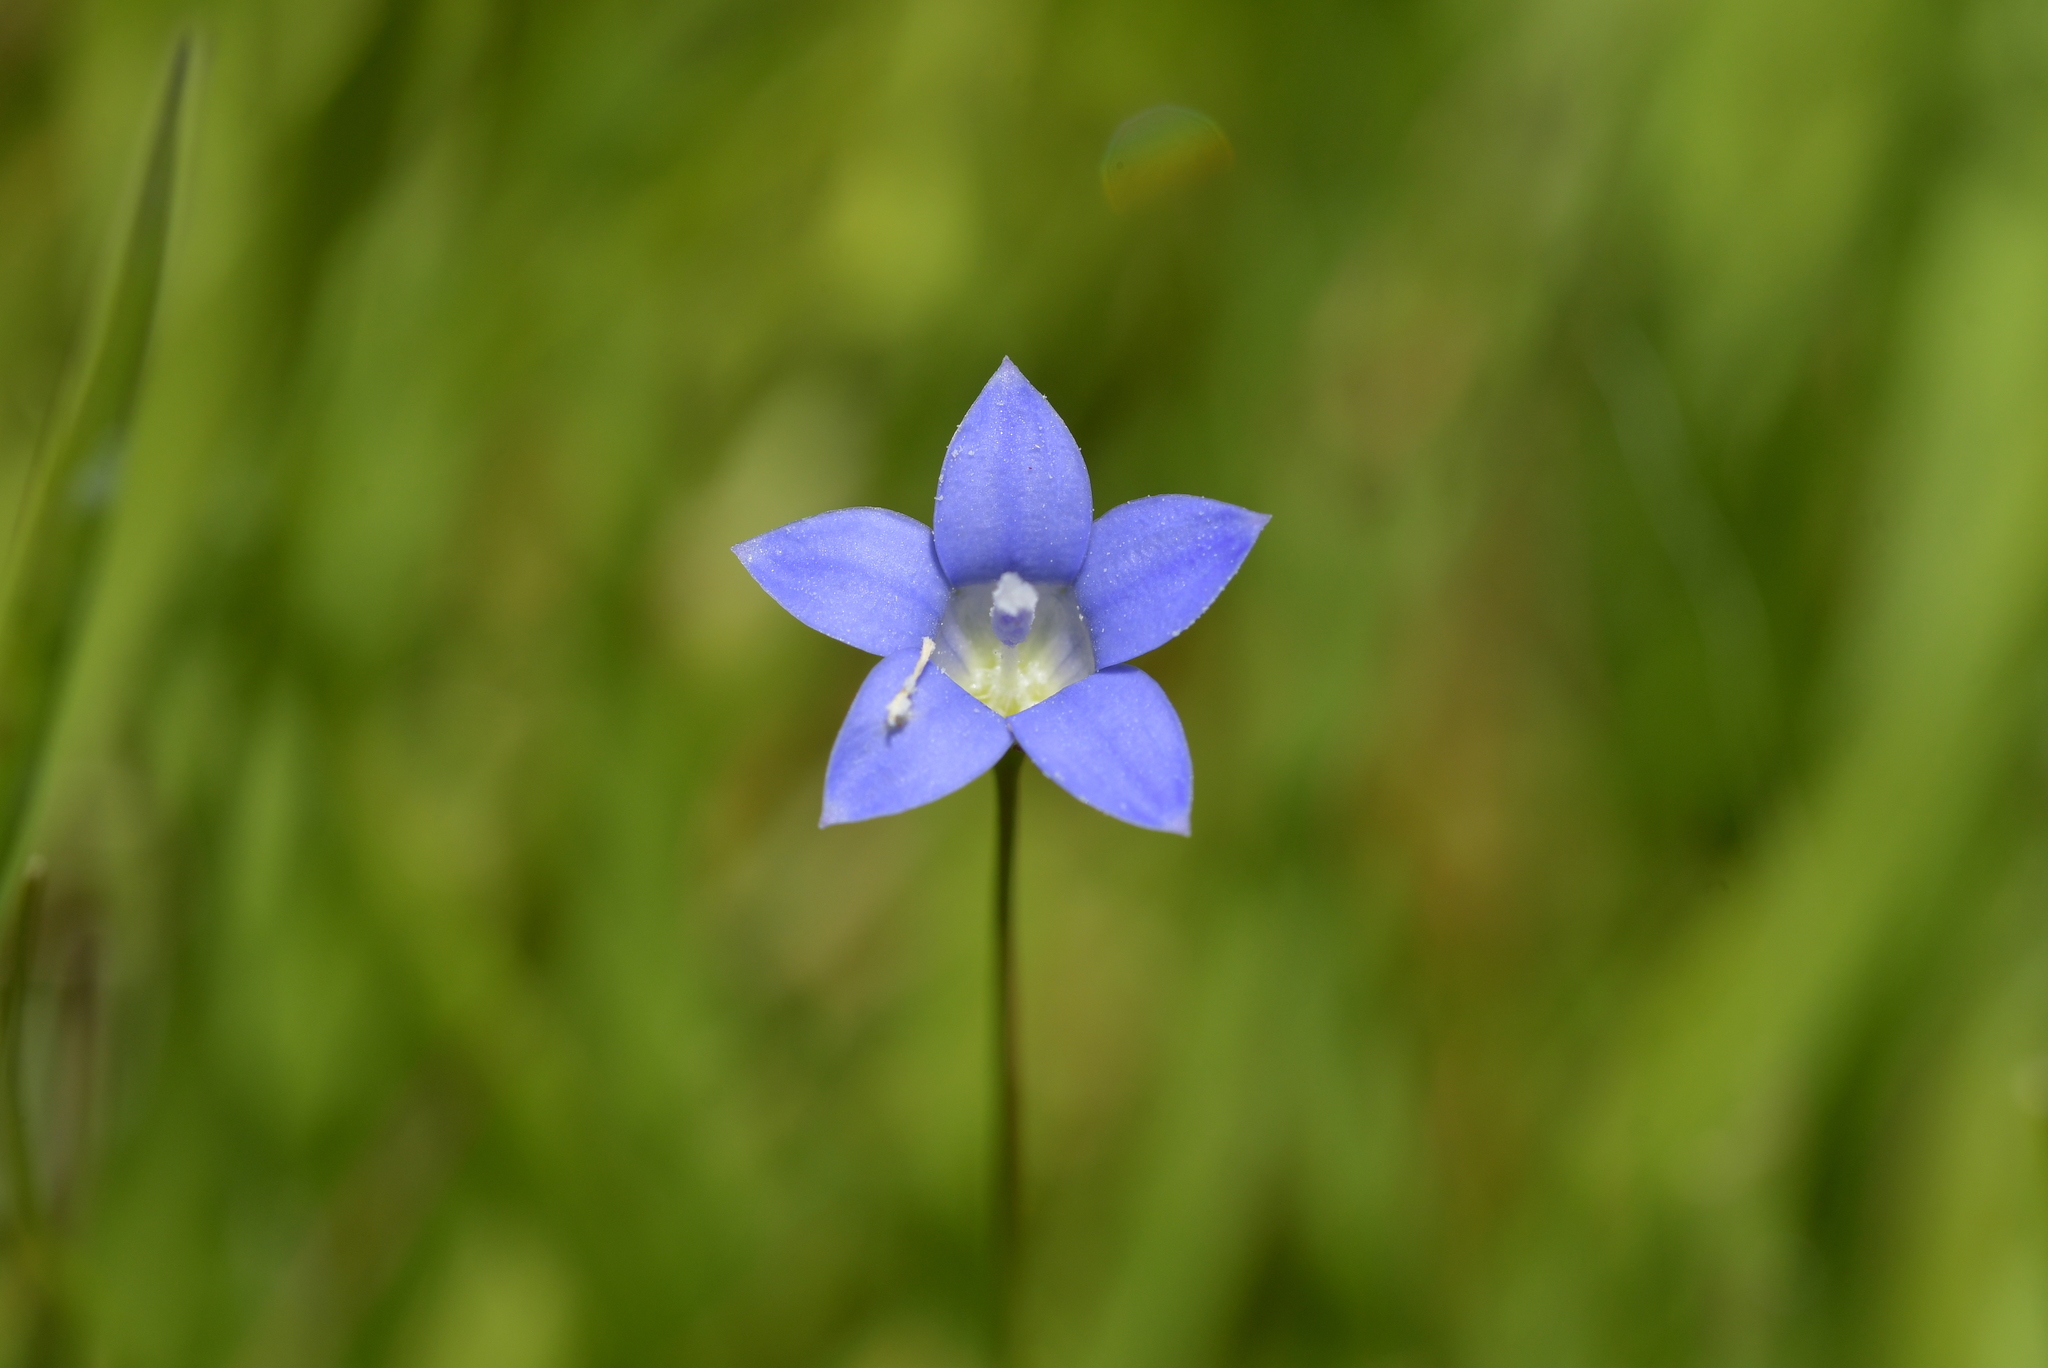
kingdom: Plantae
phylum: Tracheophyta
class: Magnoliopsida
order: Asterales
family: Campanulaceae
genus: Wahlenbergia
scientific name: Wahlenbergia violacea
